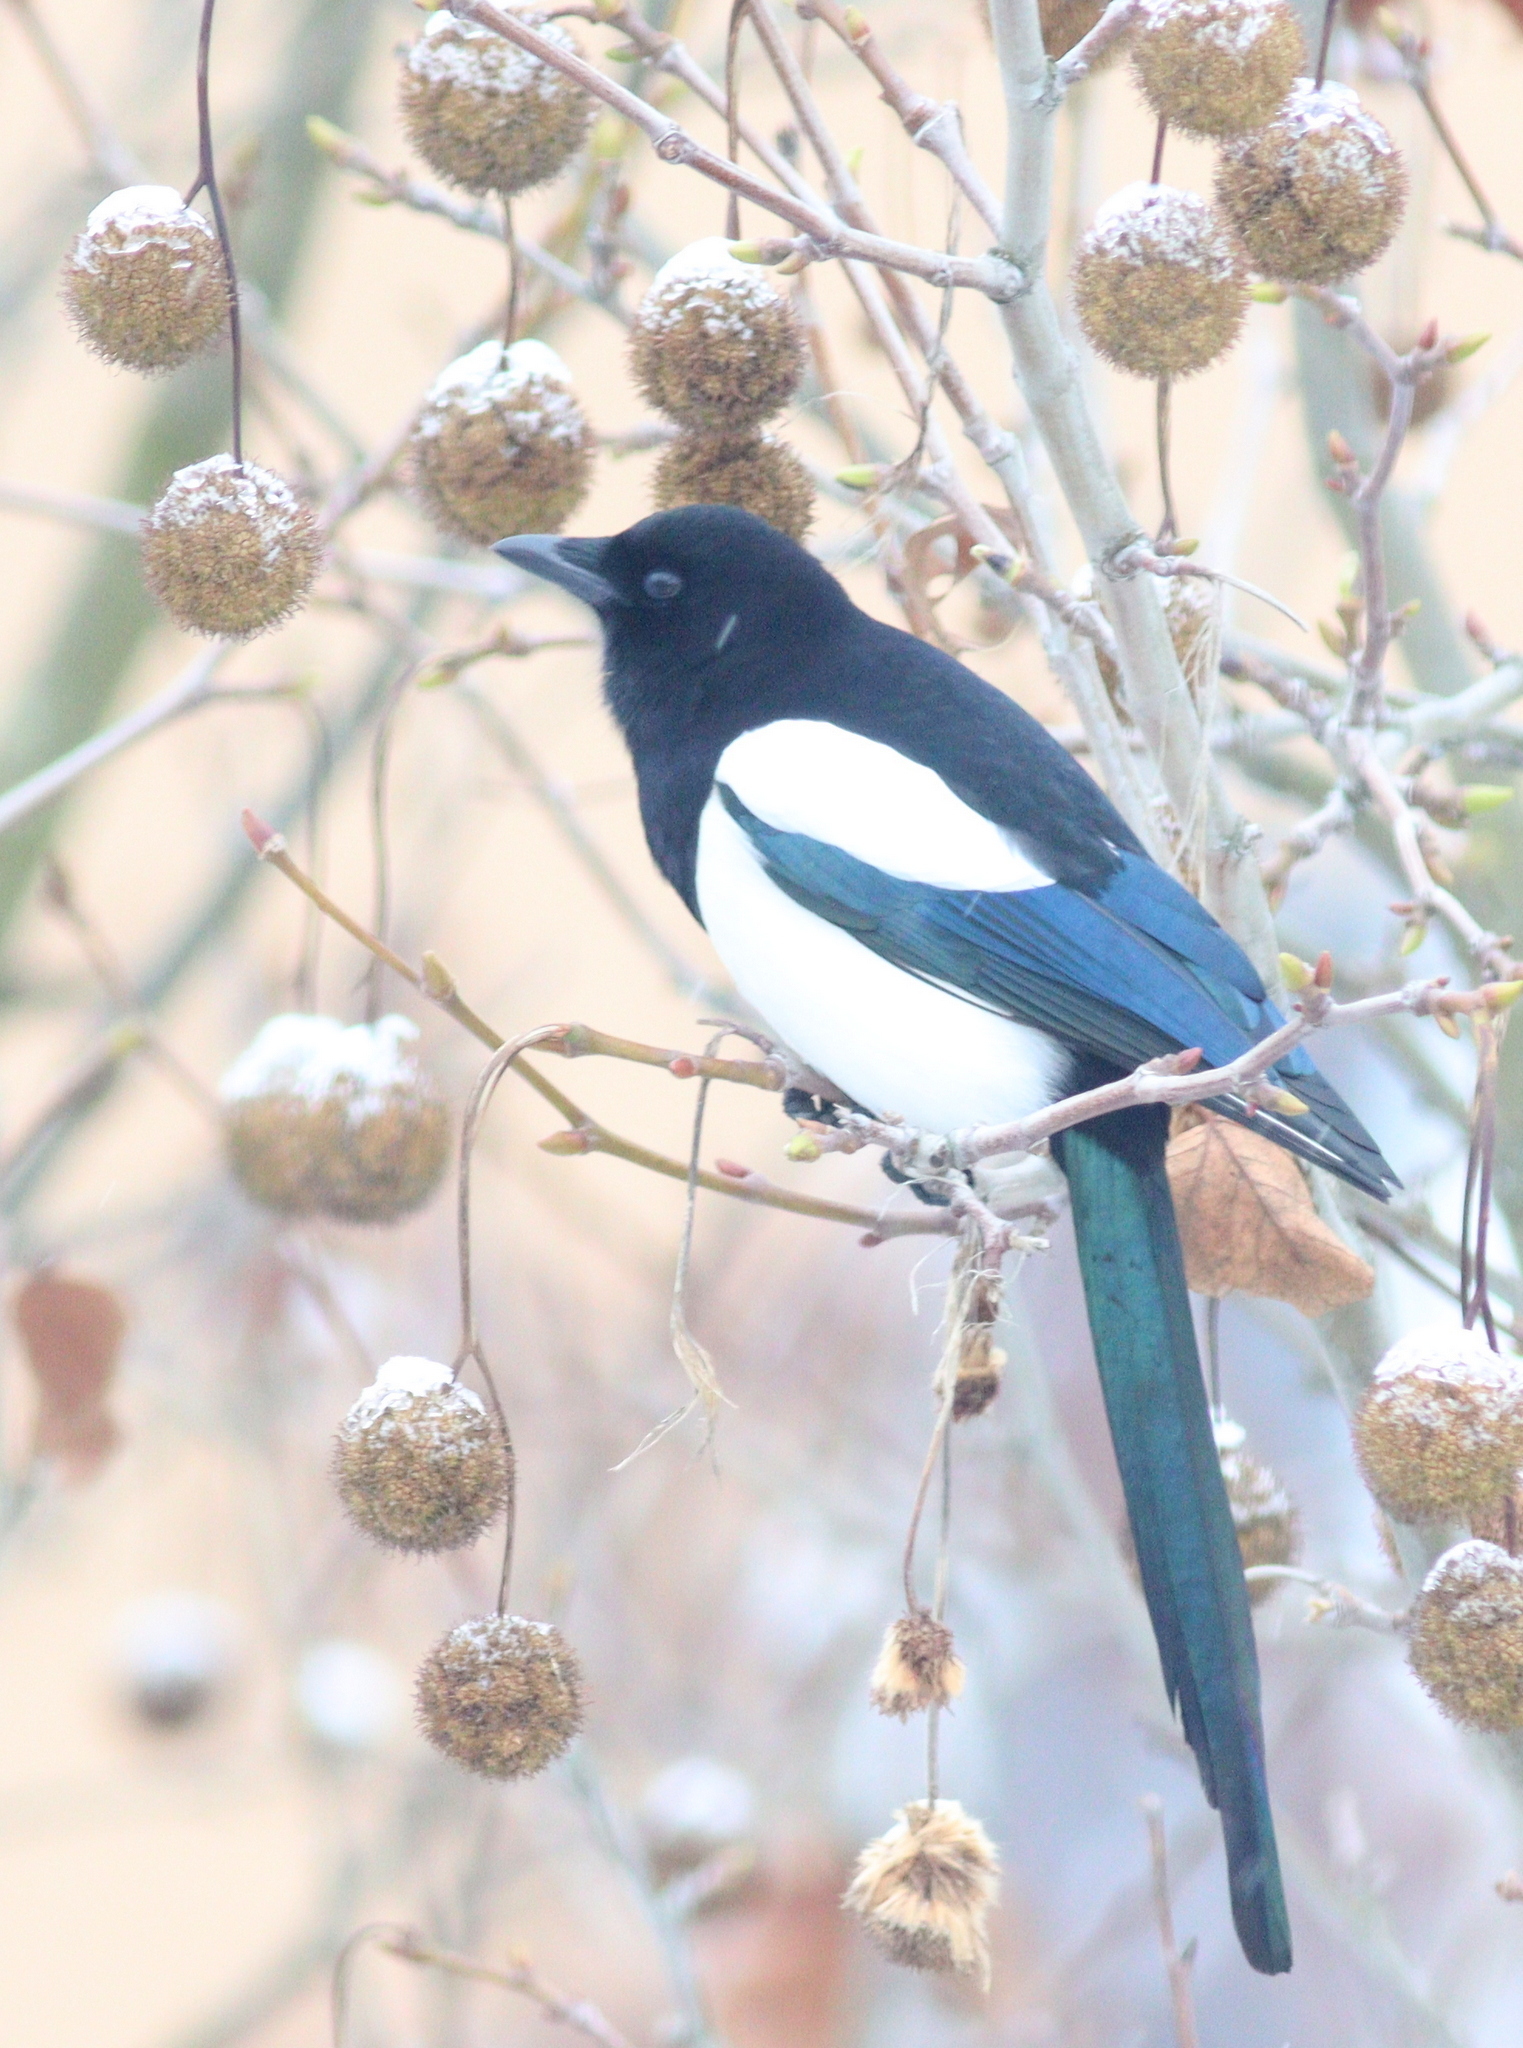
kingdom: Animalia
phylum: Chordata
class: Aves
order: Passeriformes
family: Corvidae
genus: Pica
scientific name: Pica pica
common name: Eurasian magpie
